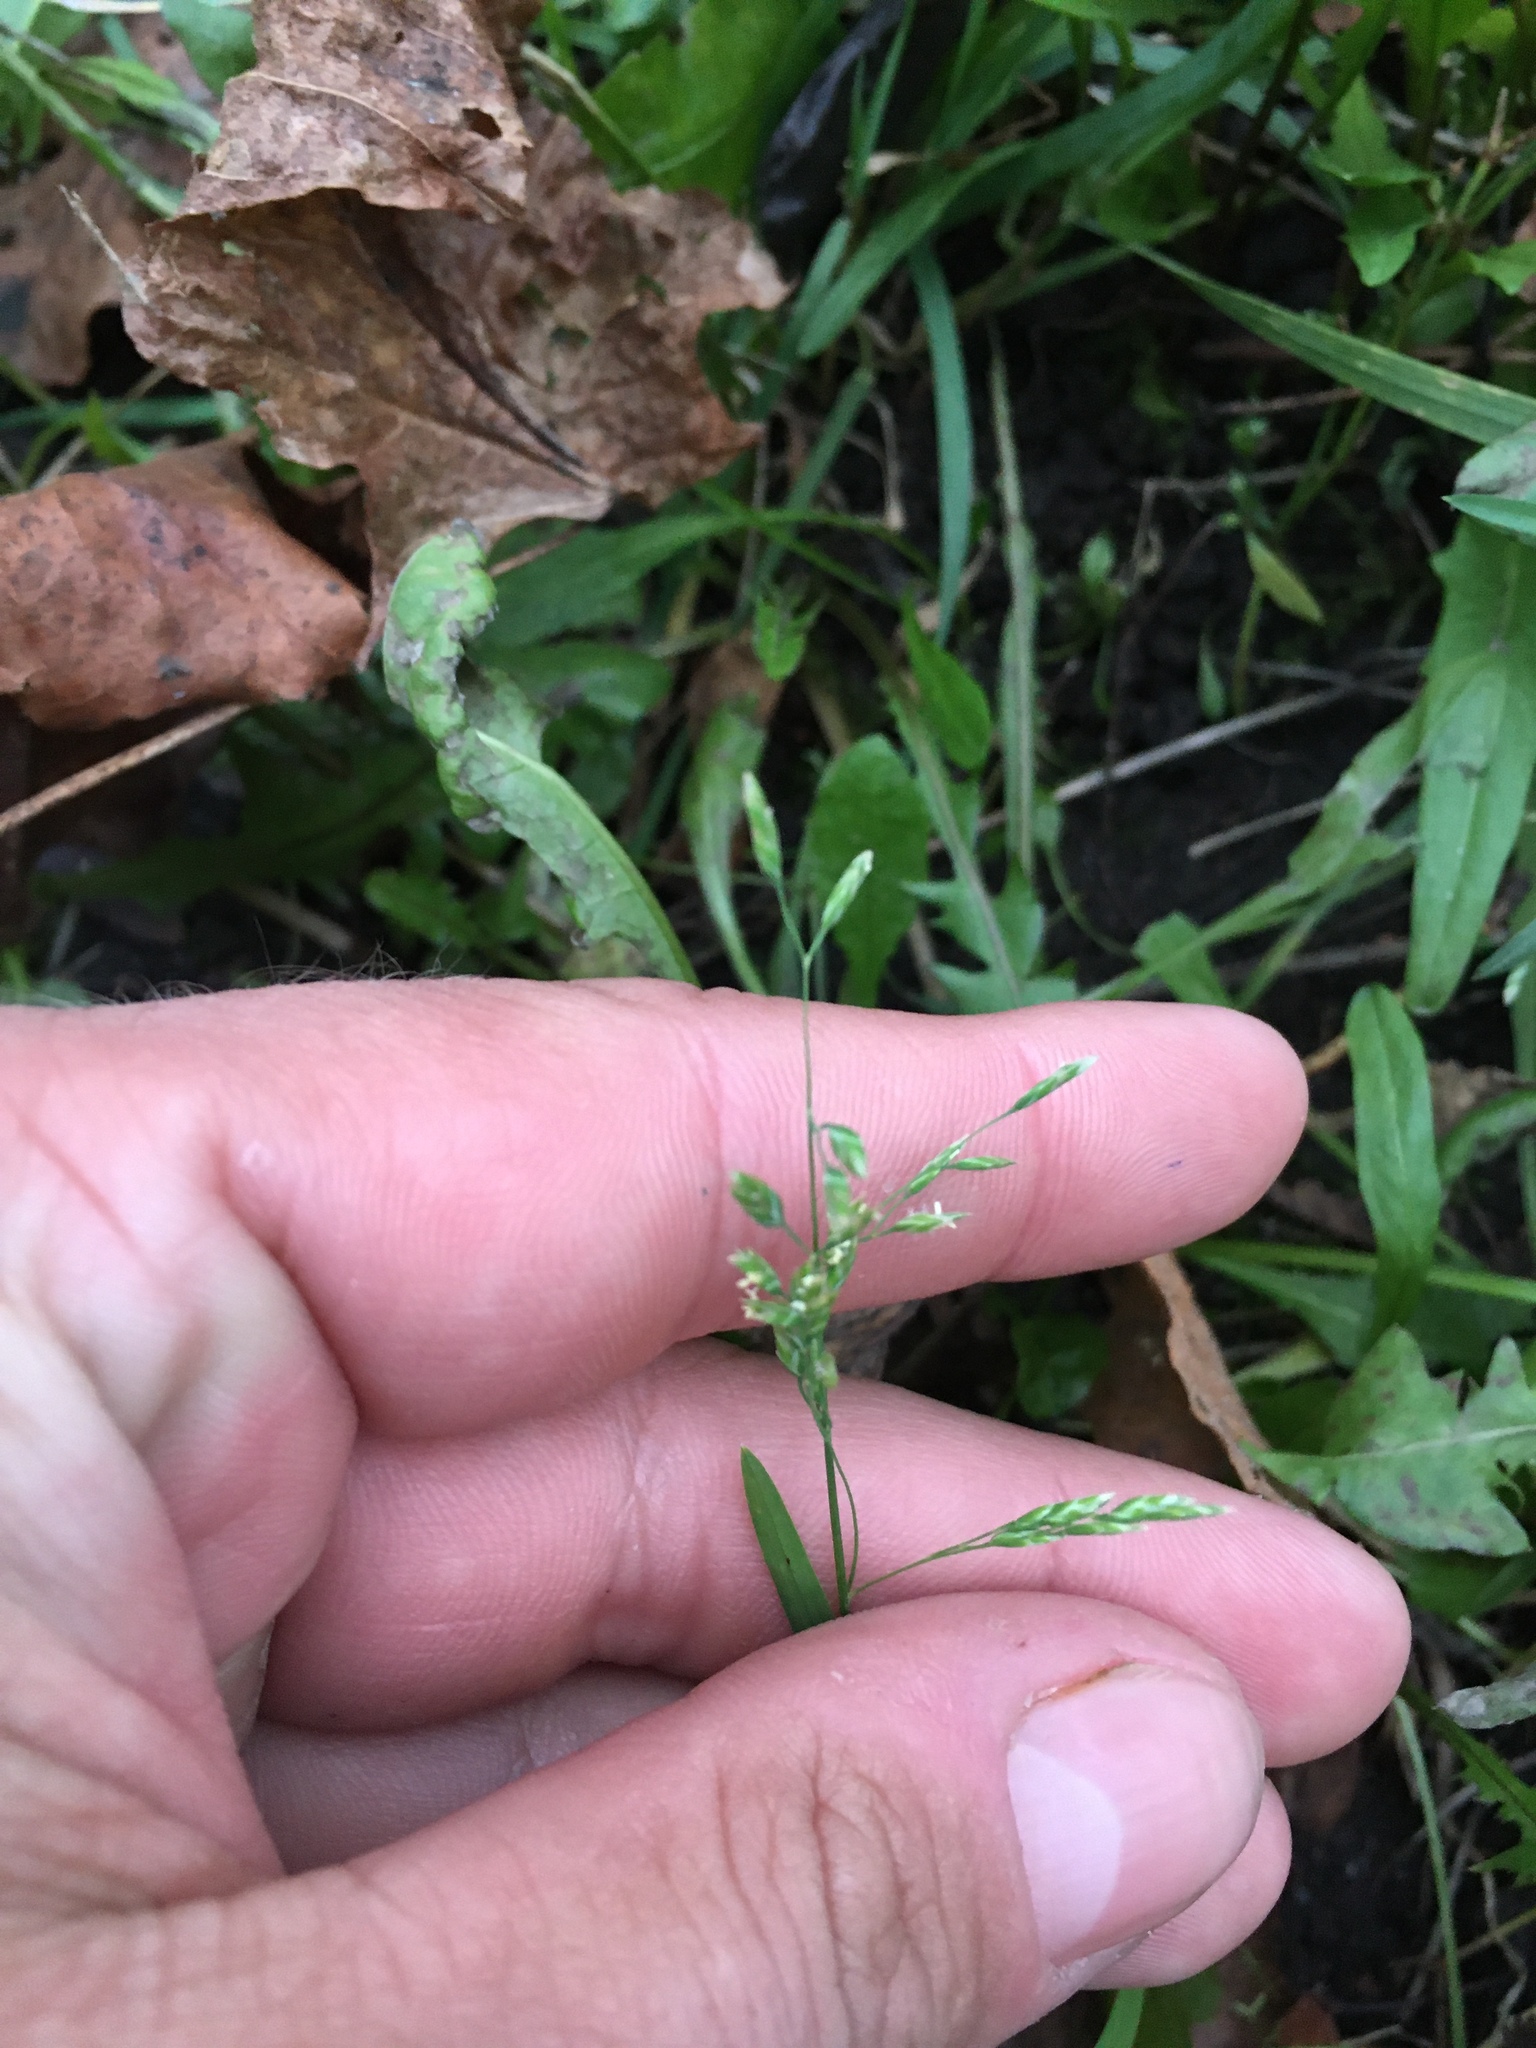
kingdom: Plantae
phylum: Tracheophyta
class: Liliopsida
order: Poales
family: Poaceae
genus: Poa
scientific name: Poa annua
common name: Annual bluegrass
